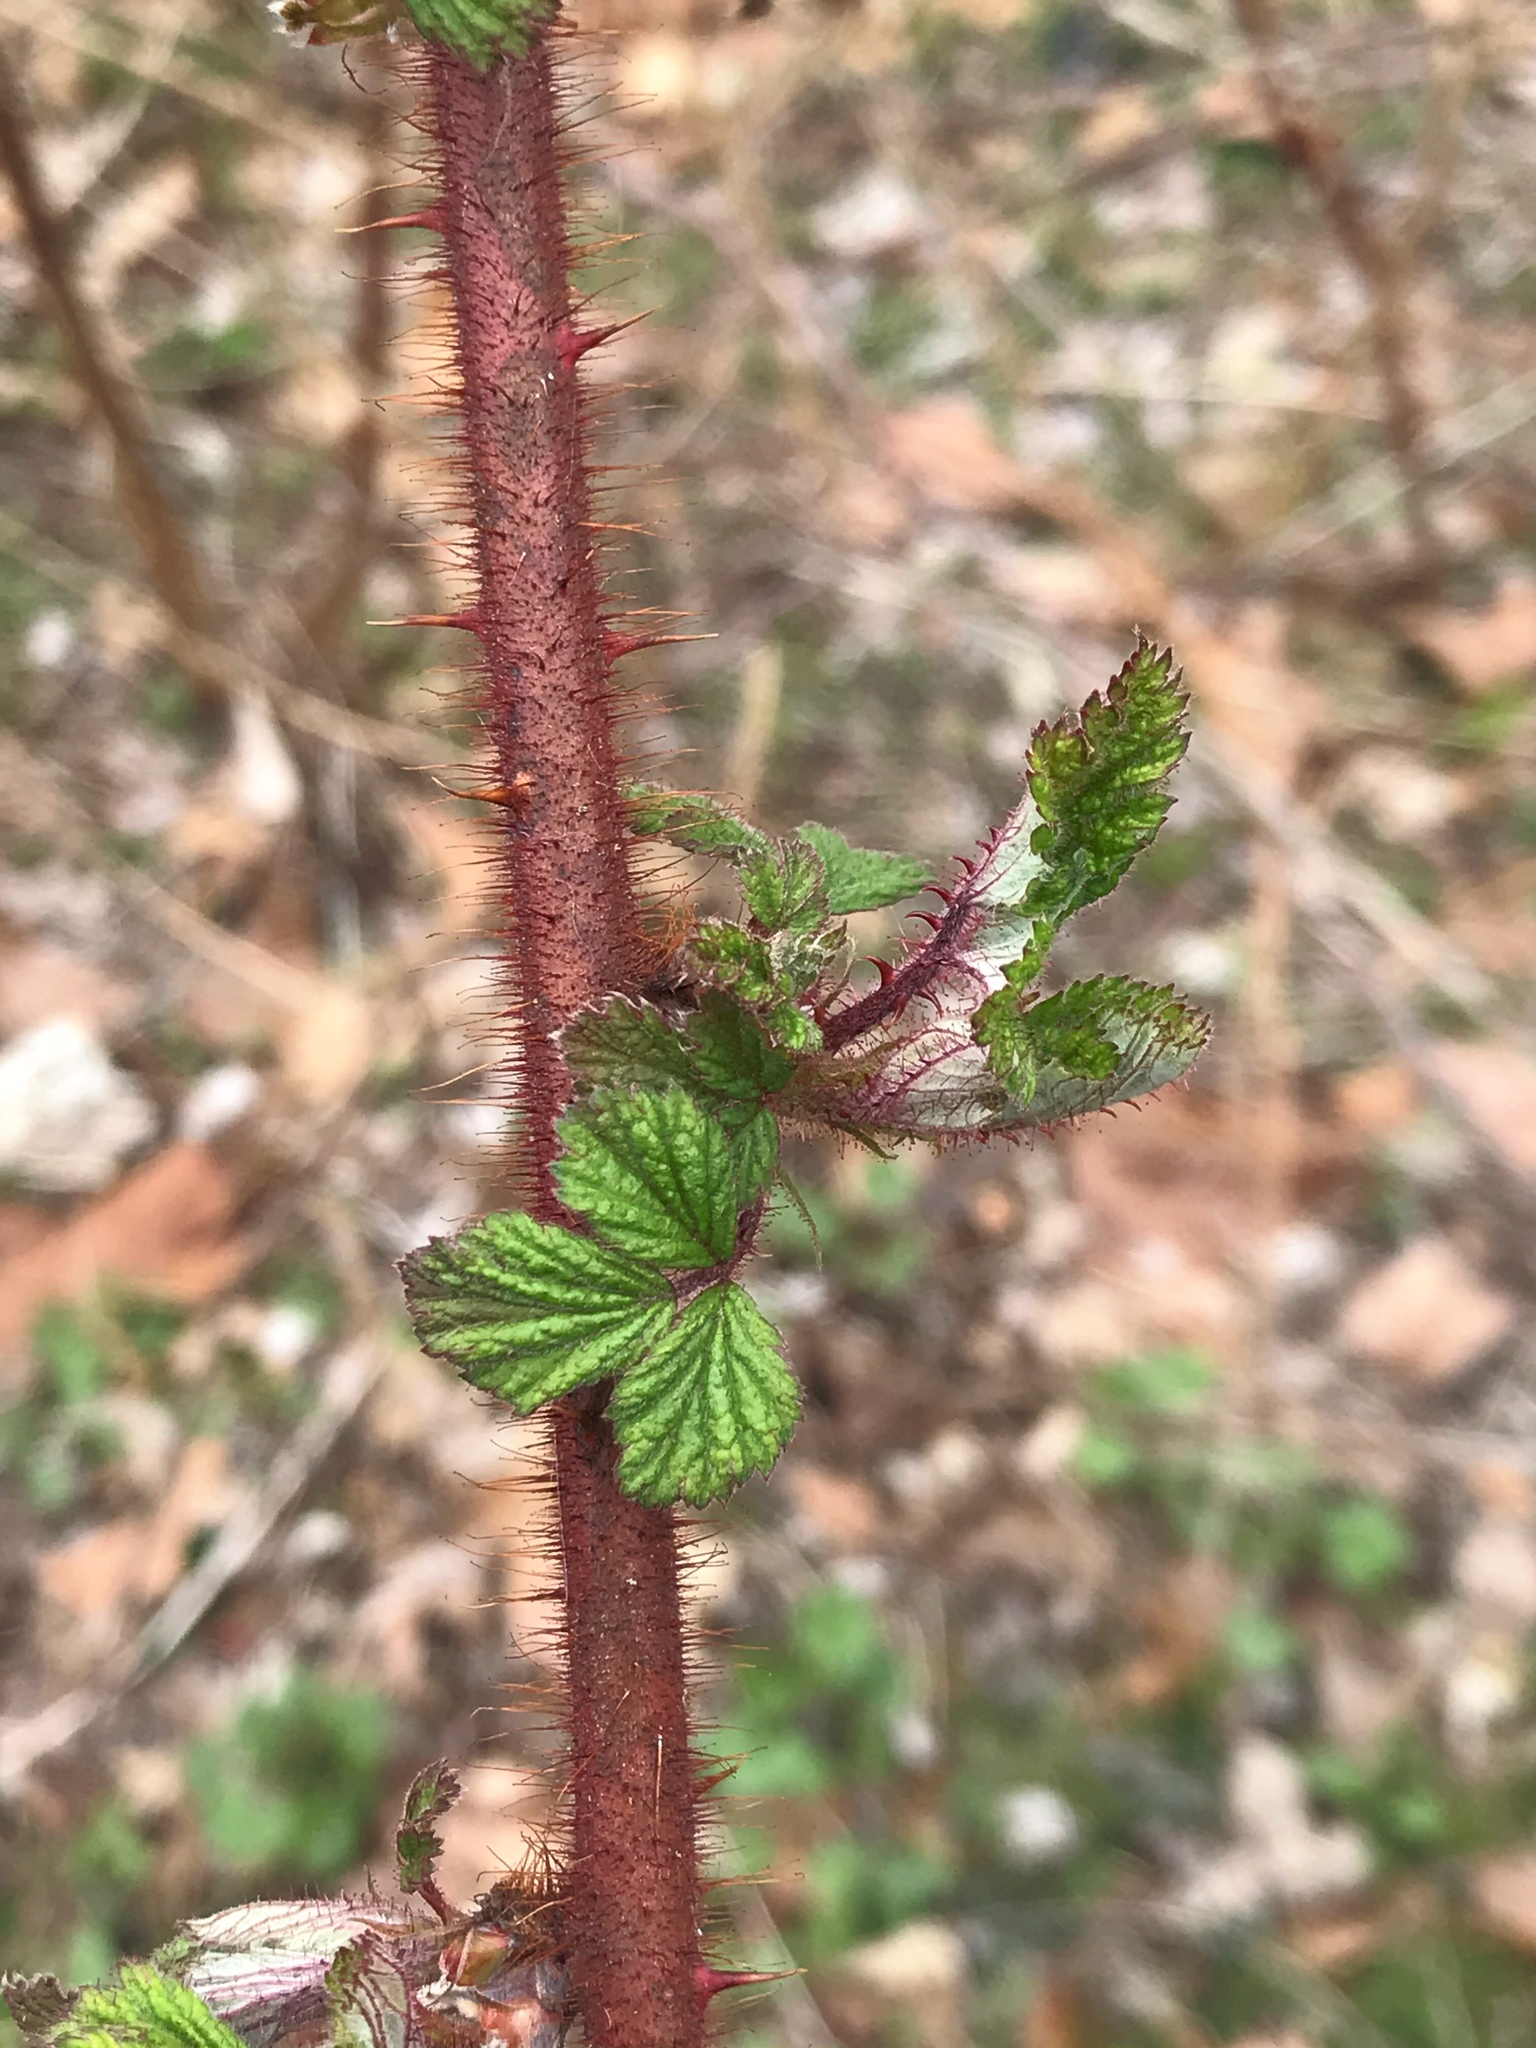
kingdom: Plantae
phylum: Tracheophyta
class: Magnoliopsida
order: Rosales
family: Rosaceae
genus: Rubus
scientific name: Rubus phoenicolasius
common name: Japanese wineberry
